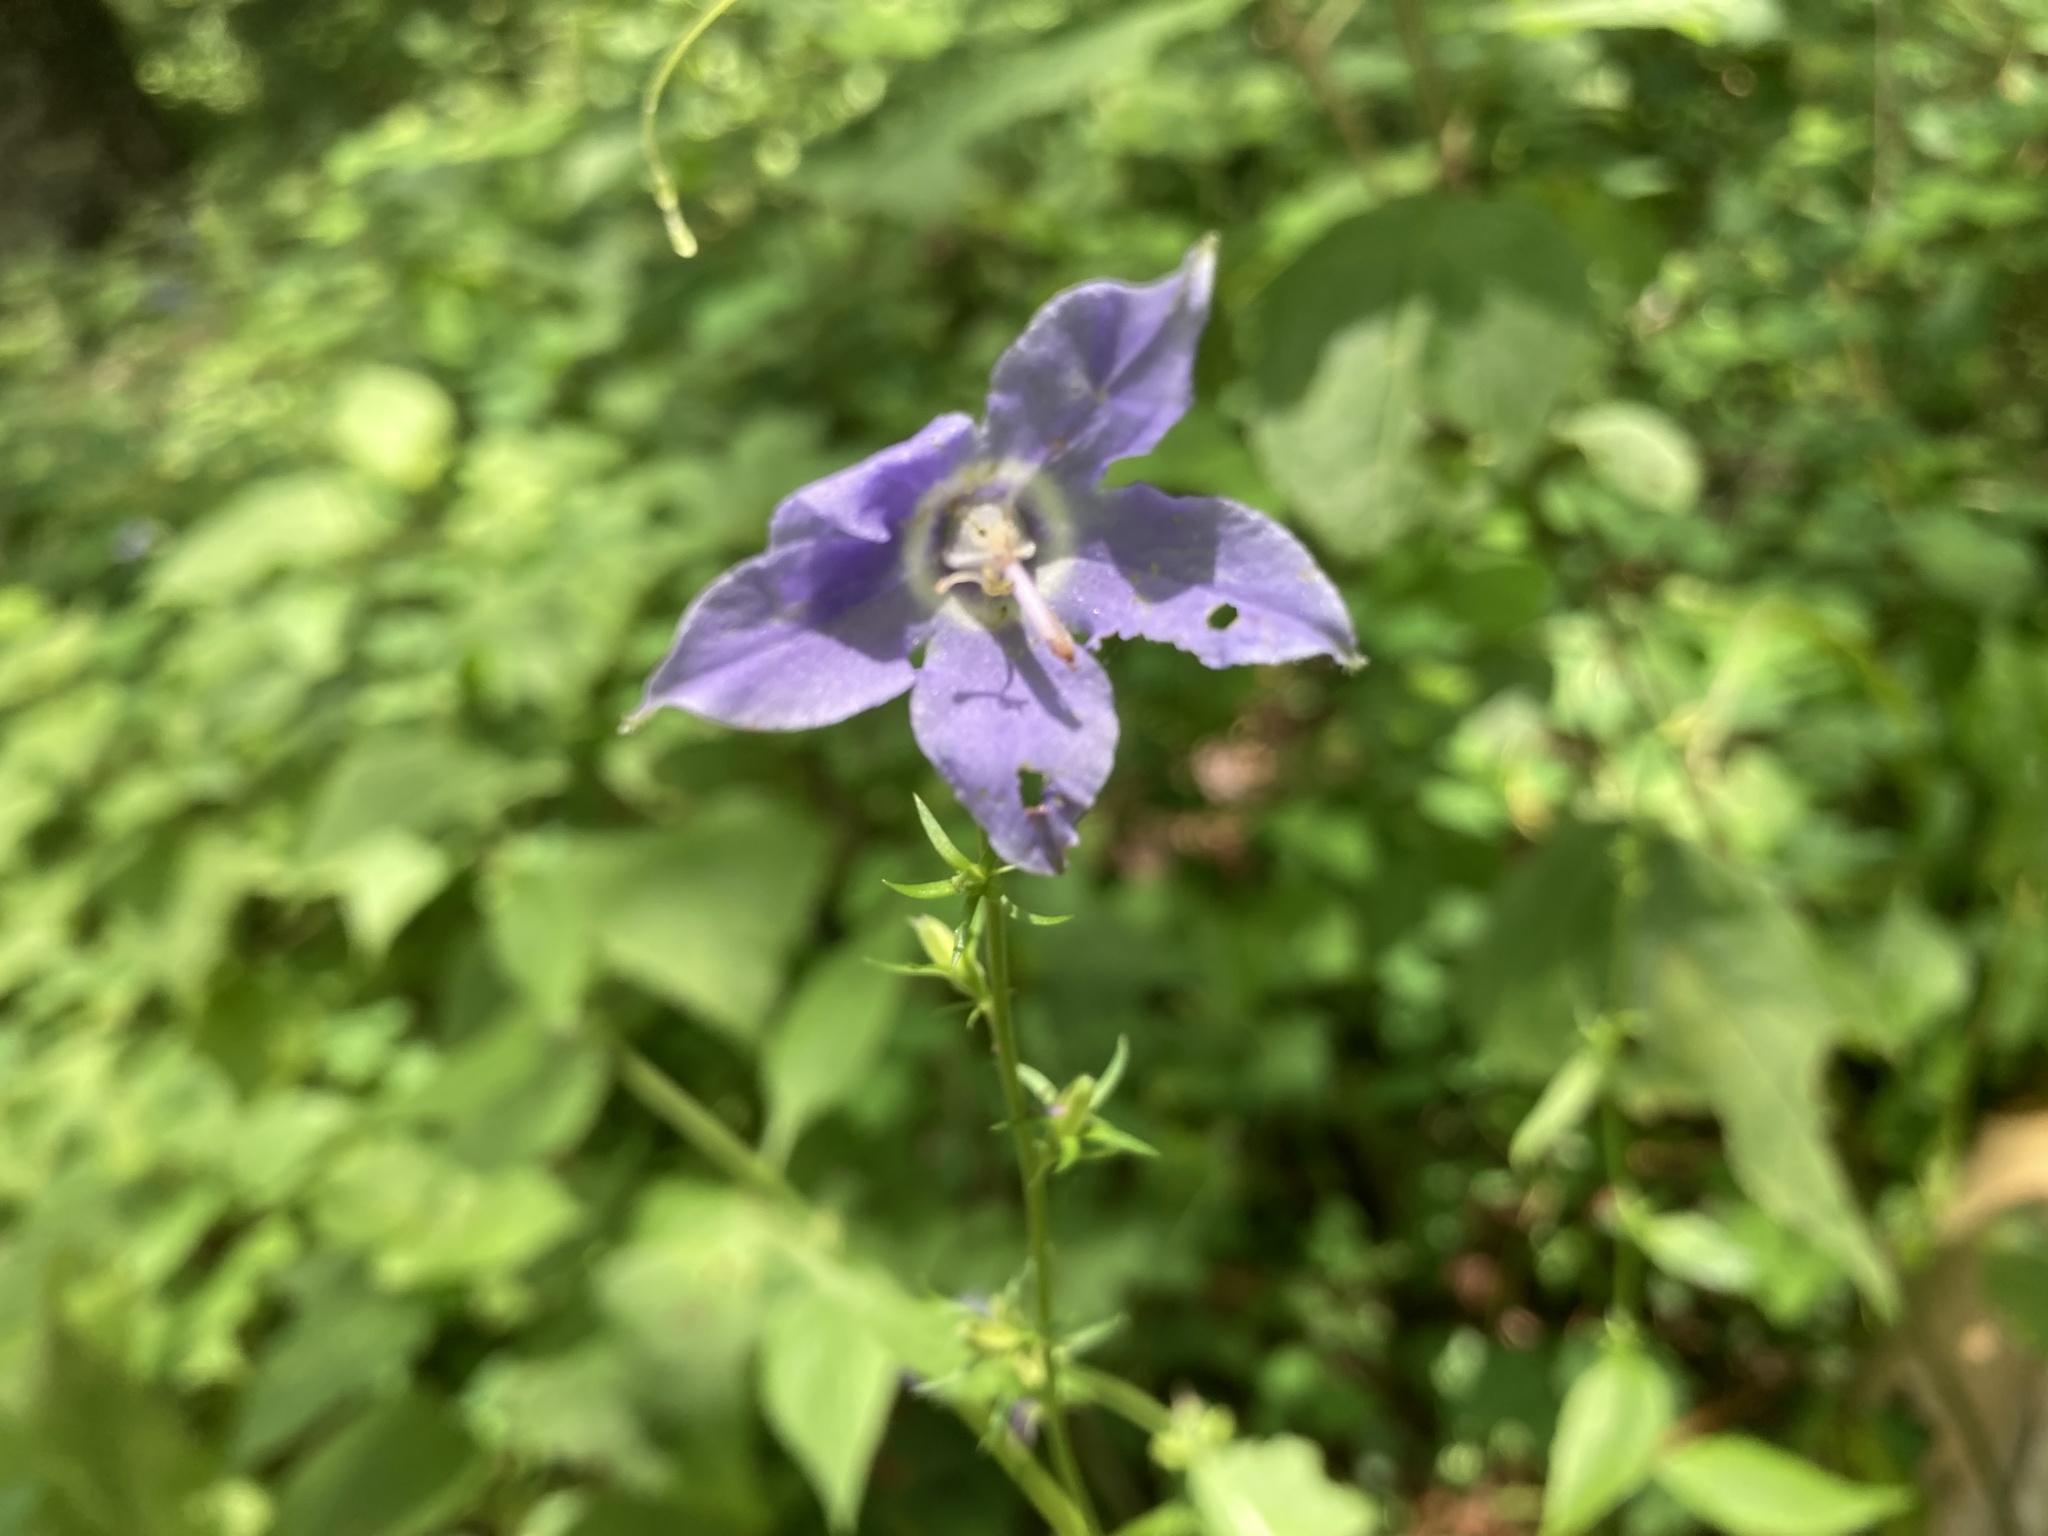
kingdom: Plantae
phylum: Tracheophyta
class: Magnoliopsida
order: Asterales
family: Campanulaceae
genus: Campanulastrum
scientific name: Campanulastrum americanum
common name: American bellflower
